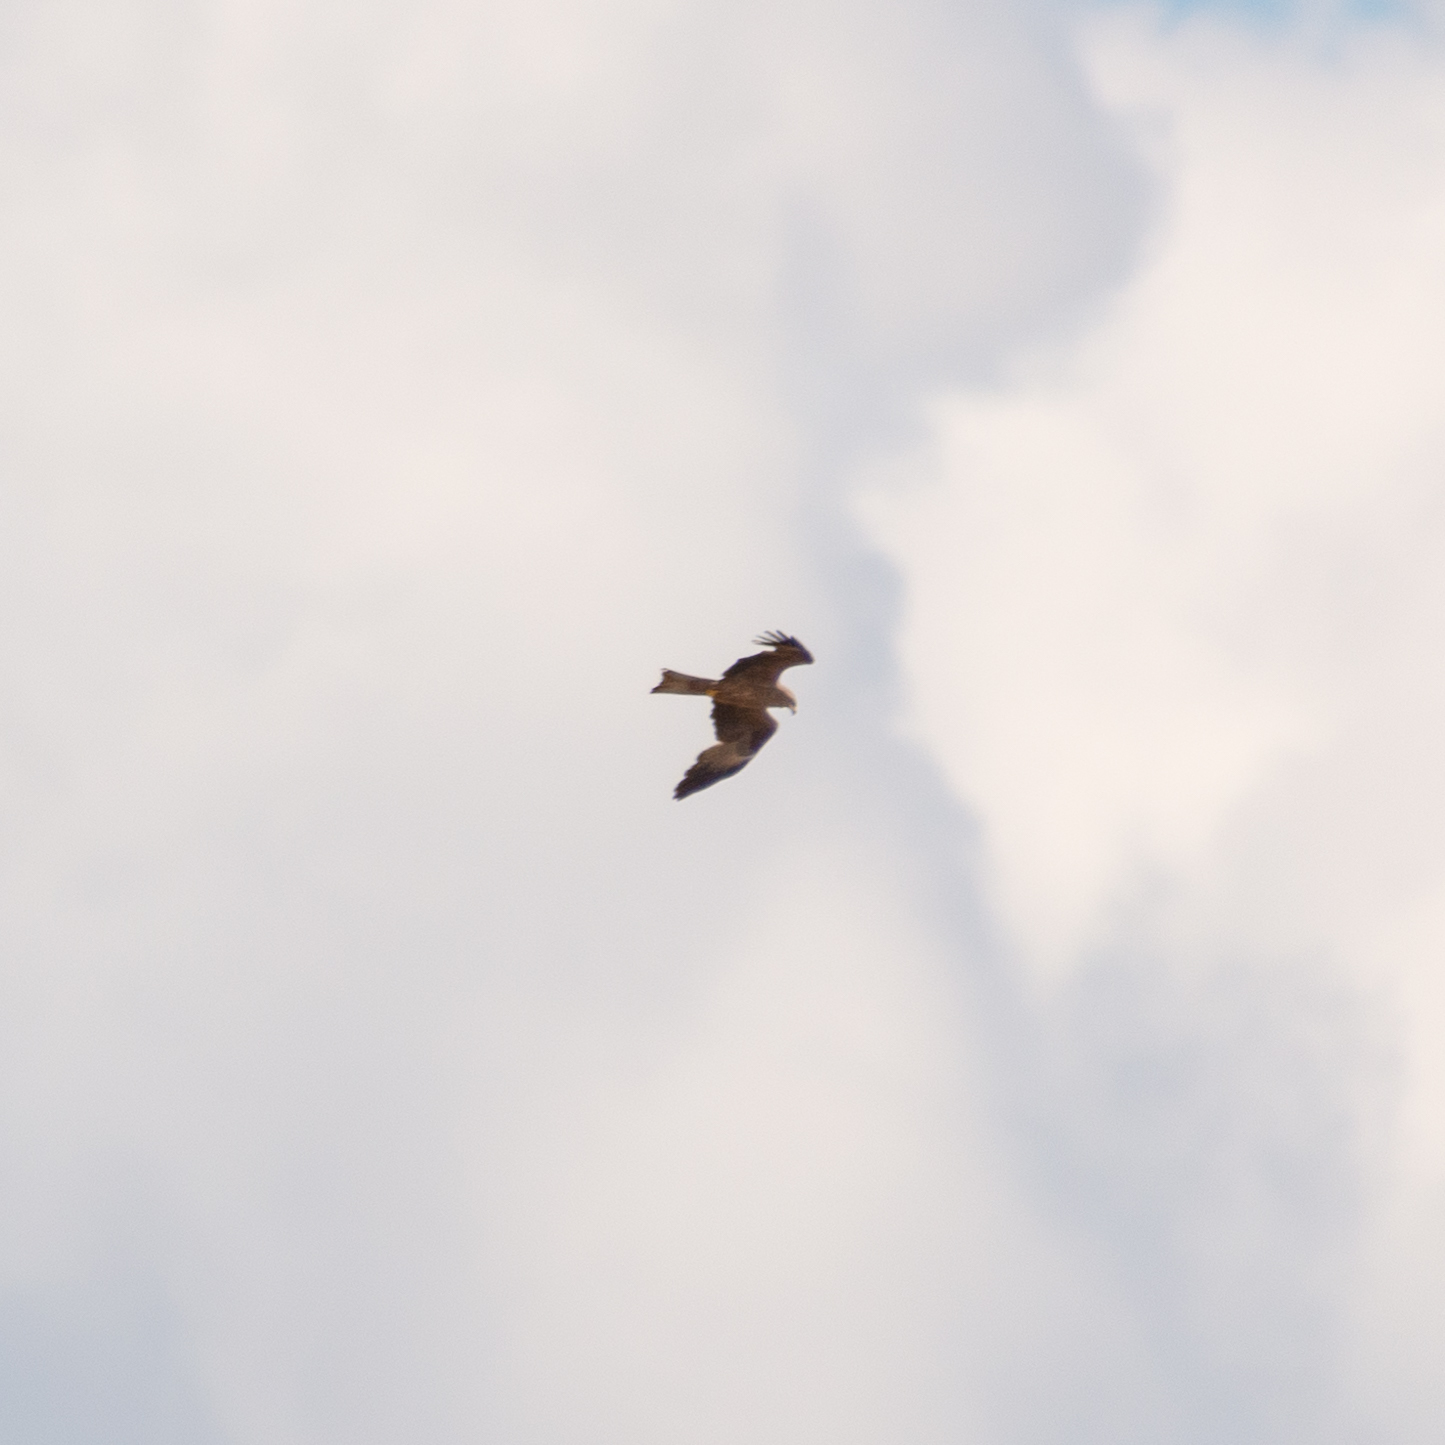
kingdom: Animalia
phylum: Chordata
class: Aves
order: Accipitriformes
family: Accipitridae
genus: Milvus
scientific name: Milvus migrans
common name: Black kite
